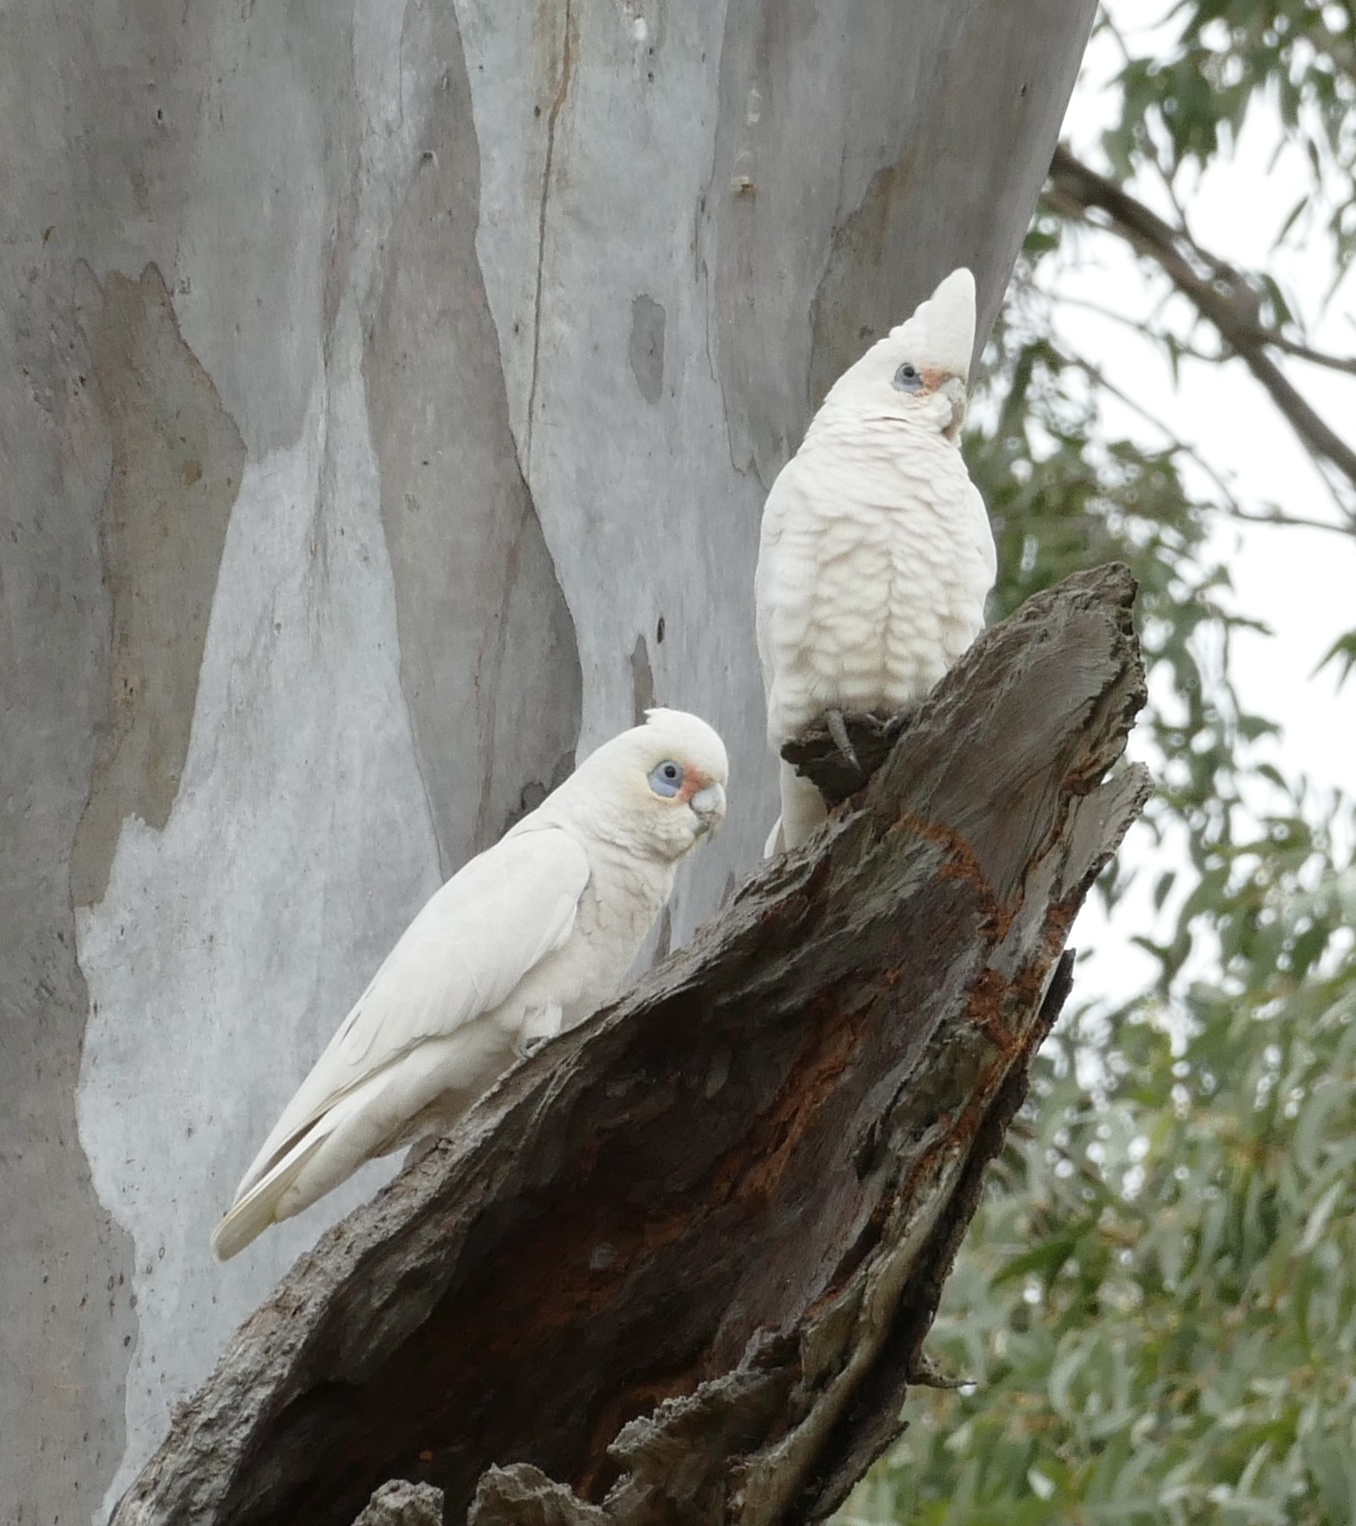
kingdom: Animalia
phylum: Chordata
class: Aves
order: Psittaciformes
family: Psittacidae
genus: Cacatua
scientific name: Cacatua sanguinea
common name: Little corella
